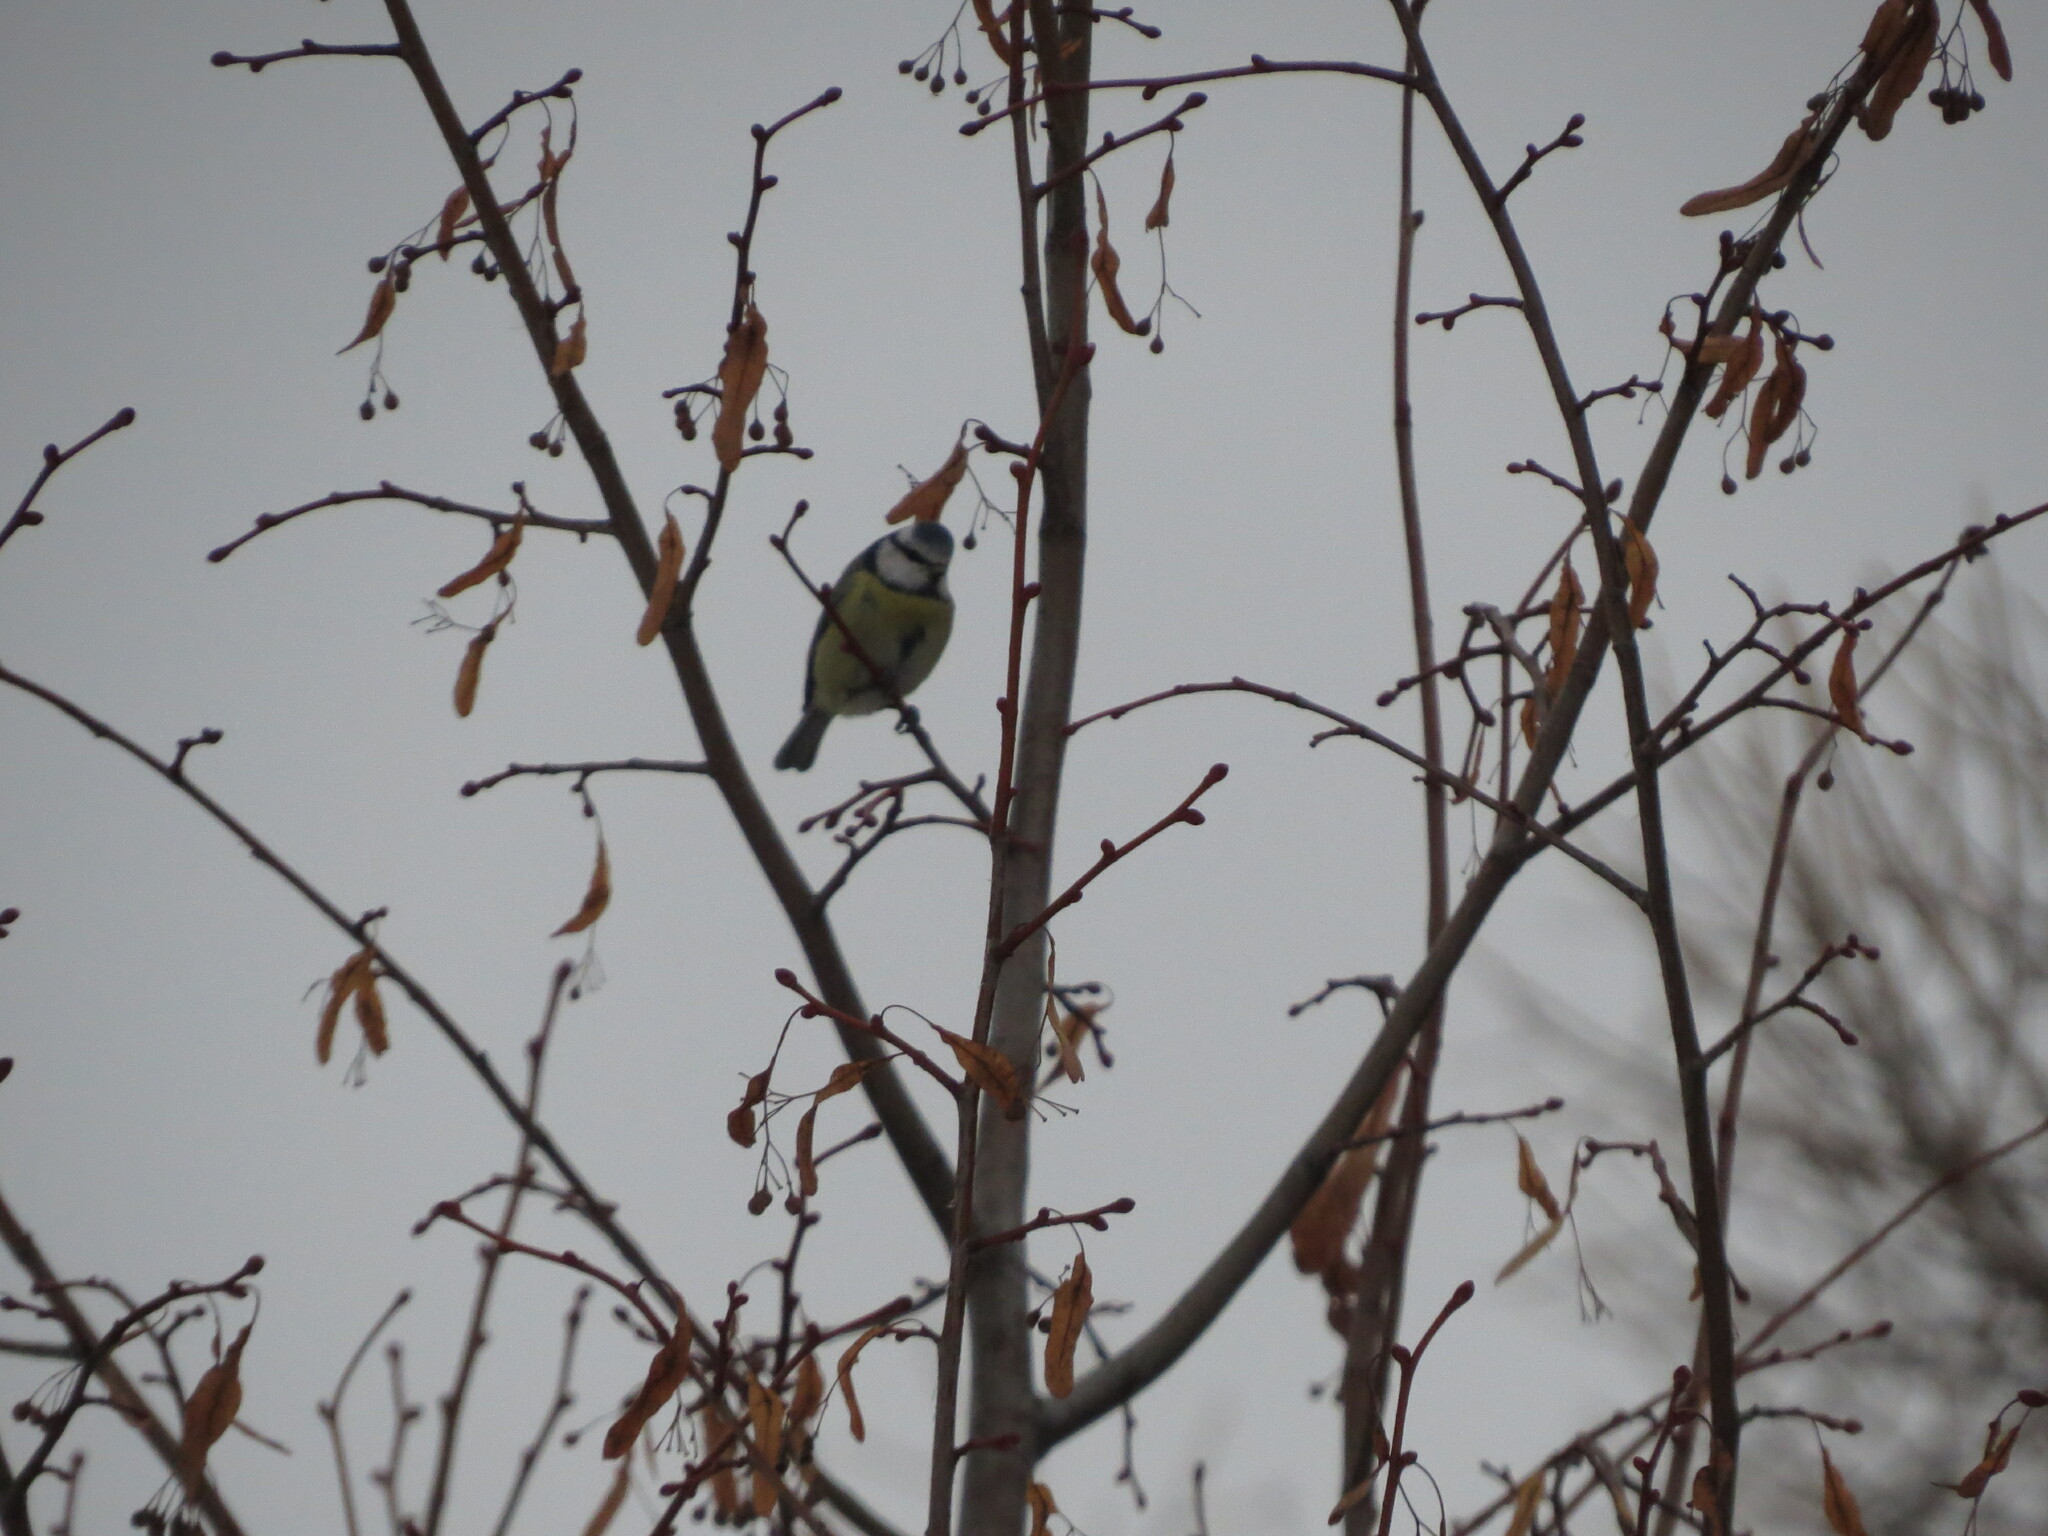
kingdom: Animalia
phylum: Chordata
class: Aves
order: Passeriformes
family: Paridae
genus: Cyanistes
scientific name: Cyanistes caeruleus
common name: Eurasian blue tit
